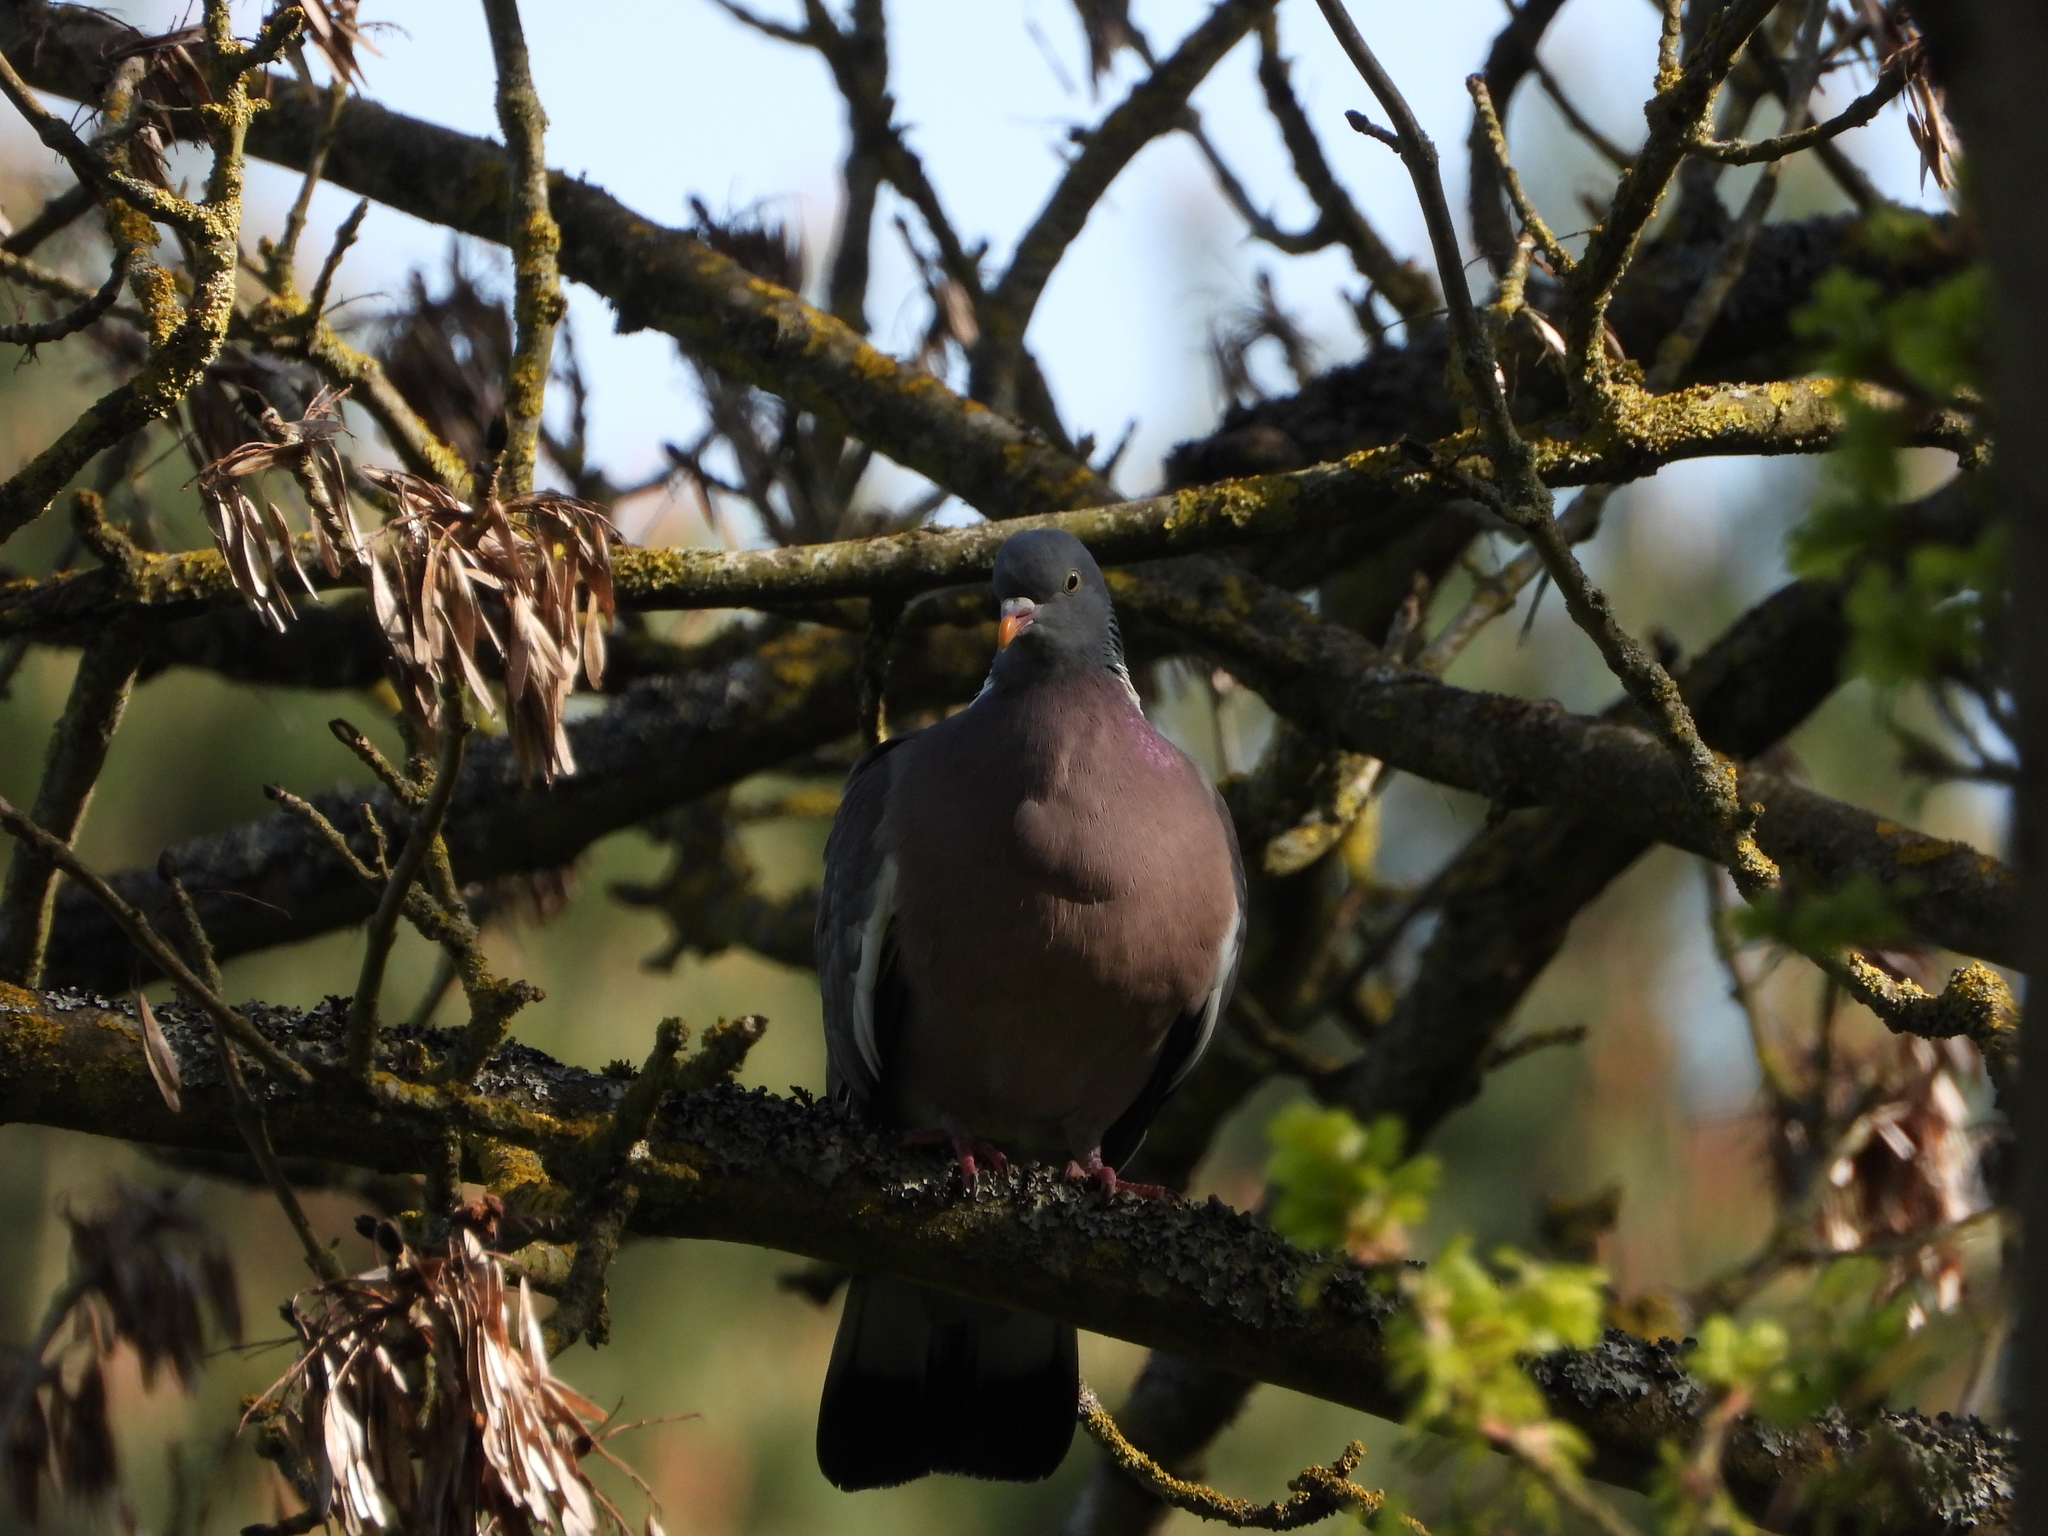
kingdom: Animalia
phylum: Chordata
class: Aves
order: Columbiformes
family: Columbidae
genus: Columba
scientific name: Columba palumbus
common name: Common wood pigeon
